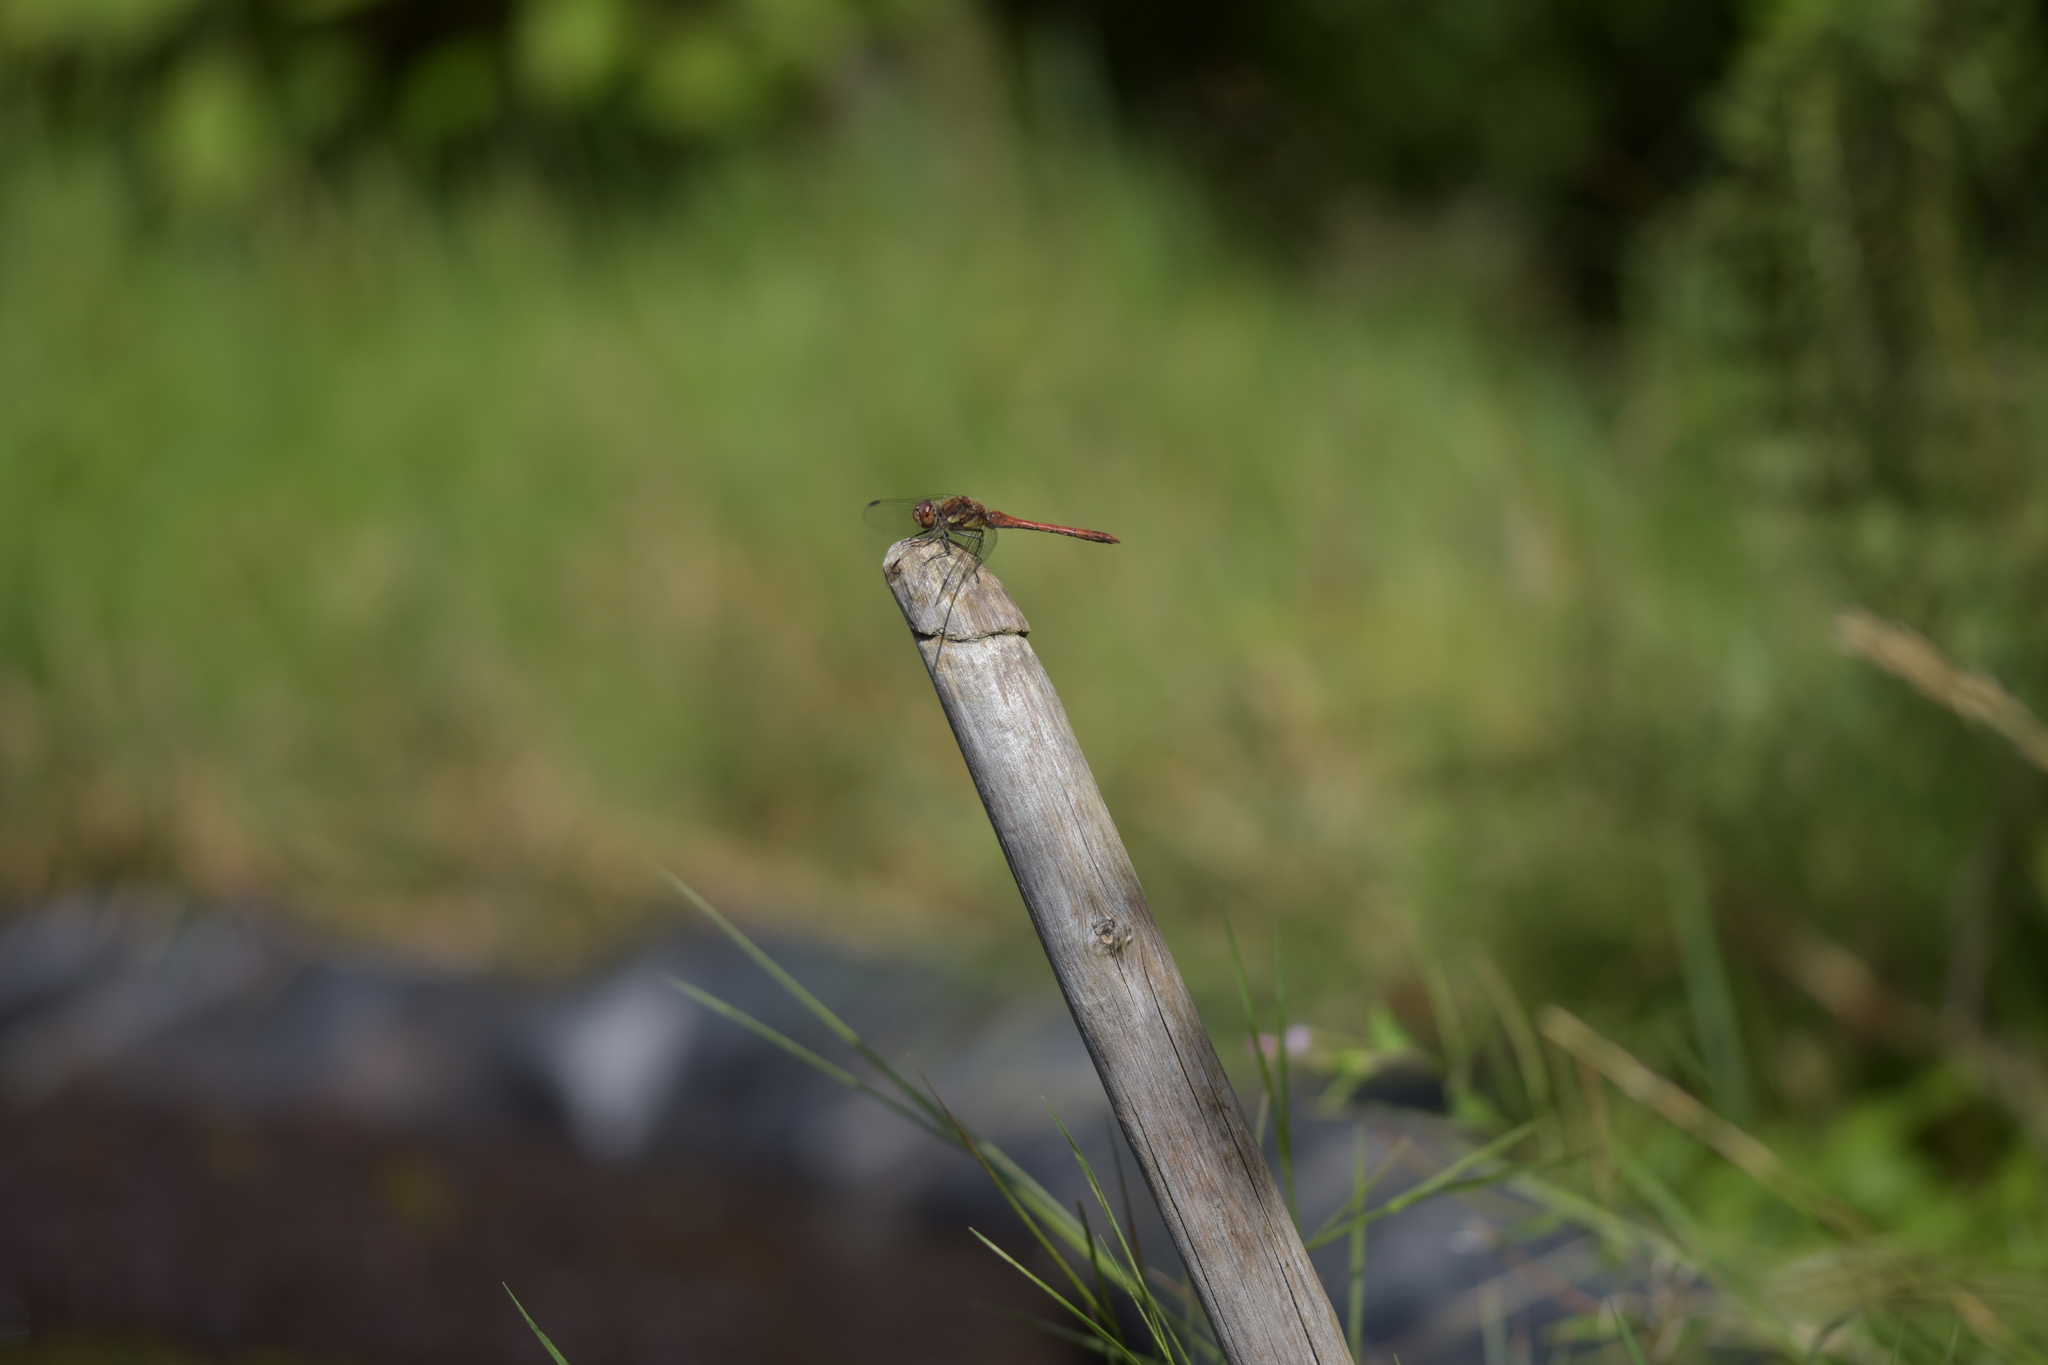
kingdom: Animalia
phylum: Arthropoda
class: Insecta
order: Odonata
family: Libellulidae
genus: Sympetrum
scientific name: Sympetrum striolatum
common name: Common darter
